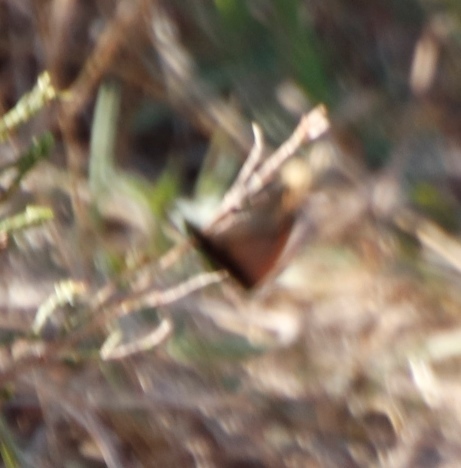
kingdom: Animalia
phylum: Arthropoda
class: Insecta
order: Lepidoptera
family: Nymphalidae
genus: Dira
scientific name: Dira clytus
